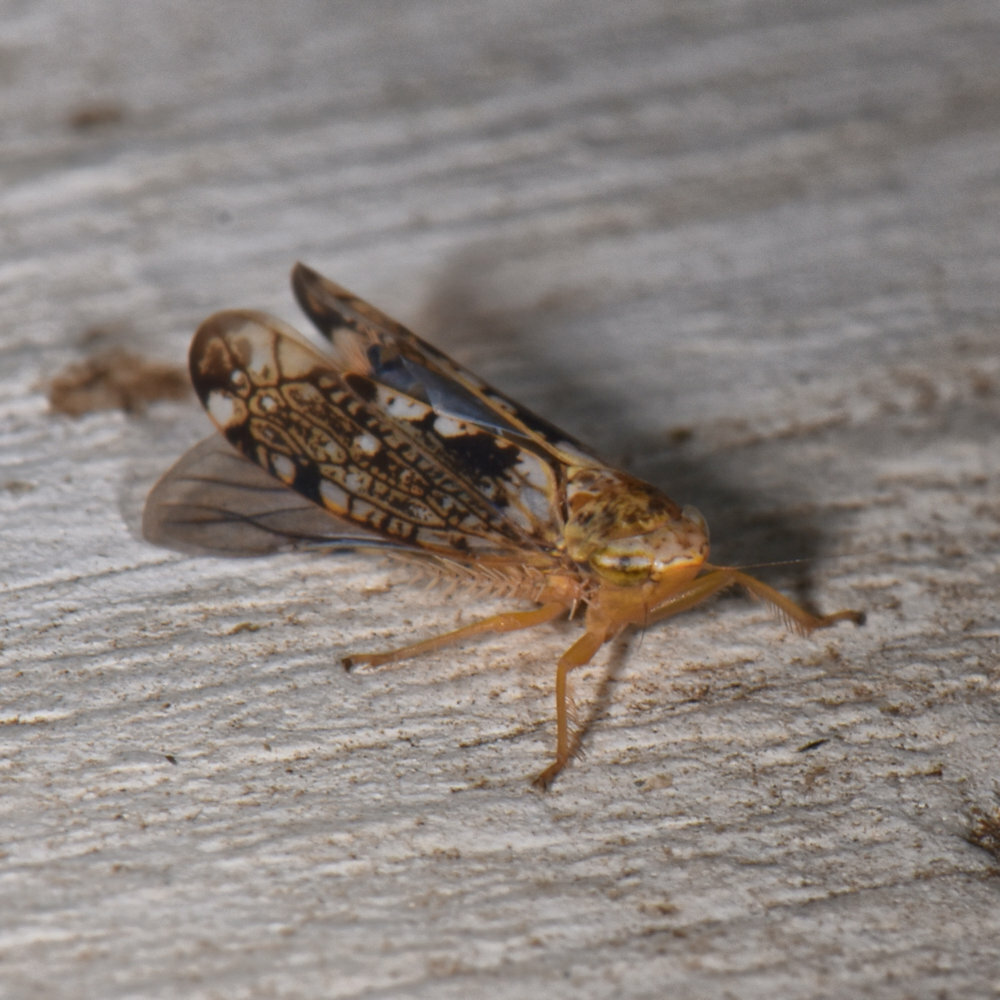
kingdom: Animalia
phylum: Arthropoda
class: Insecta
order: Hemiptera
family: Cicadellidae
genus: Prescottia
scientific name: Prescottia lobata
